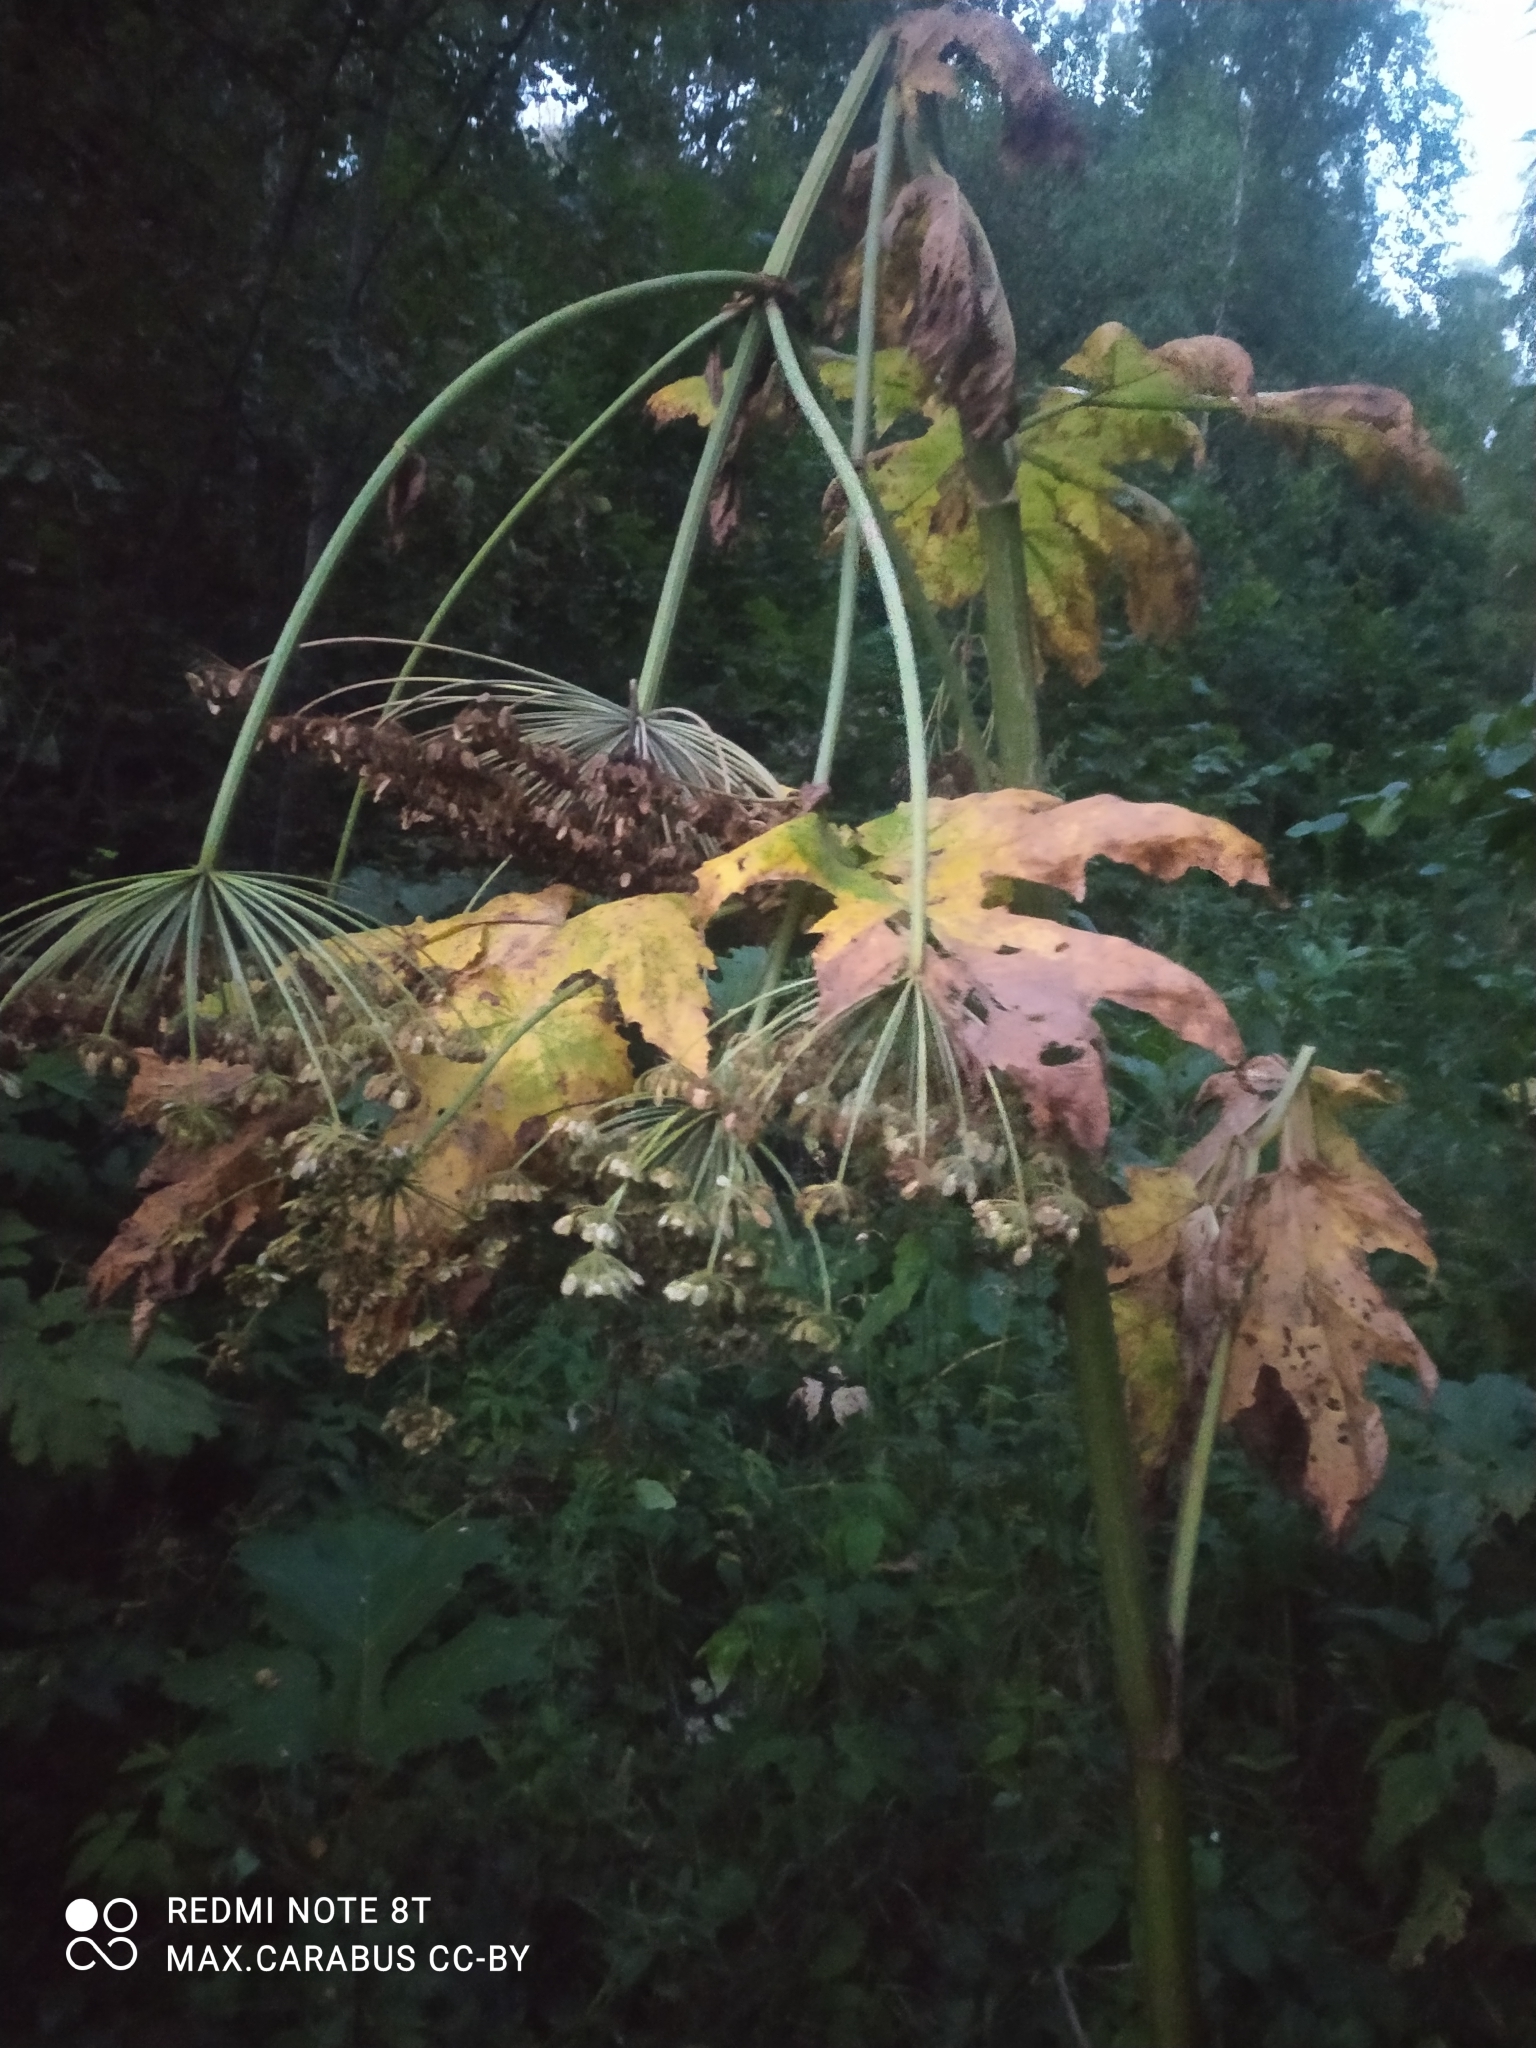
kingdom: Plantae
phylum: Tracheophyta
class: Magnoliopsida
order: Apiales
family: Apiaceae
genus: Heracleum
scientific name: Heracleum sosnowskyi
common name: Sosnowsky's hogweed
